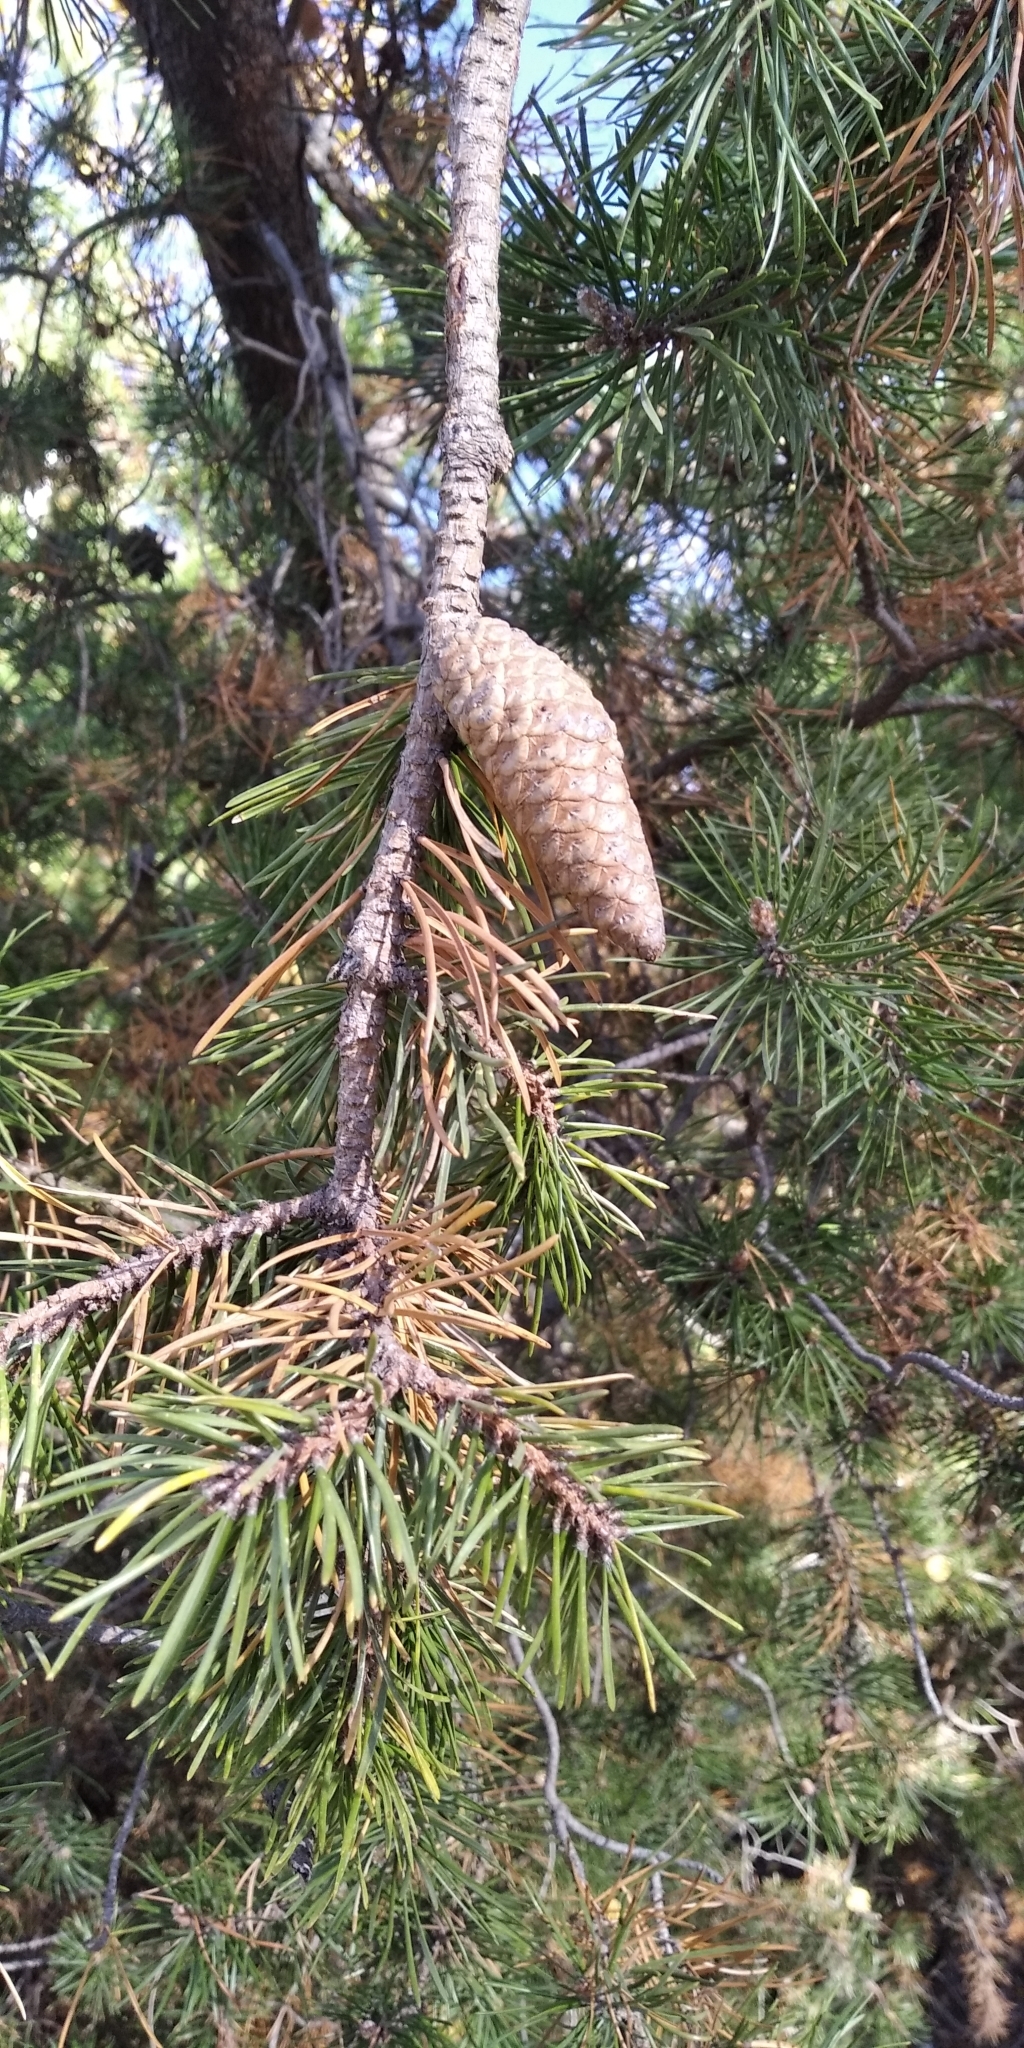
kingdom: Plantae
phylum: Tracheophyta
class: Pinopsida
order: Pinales
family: Pinaceae
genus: Pinus
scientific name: Pinus banksiana
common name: Jack pine
